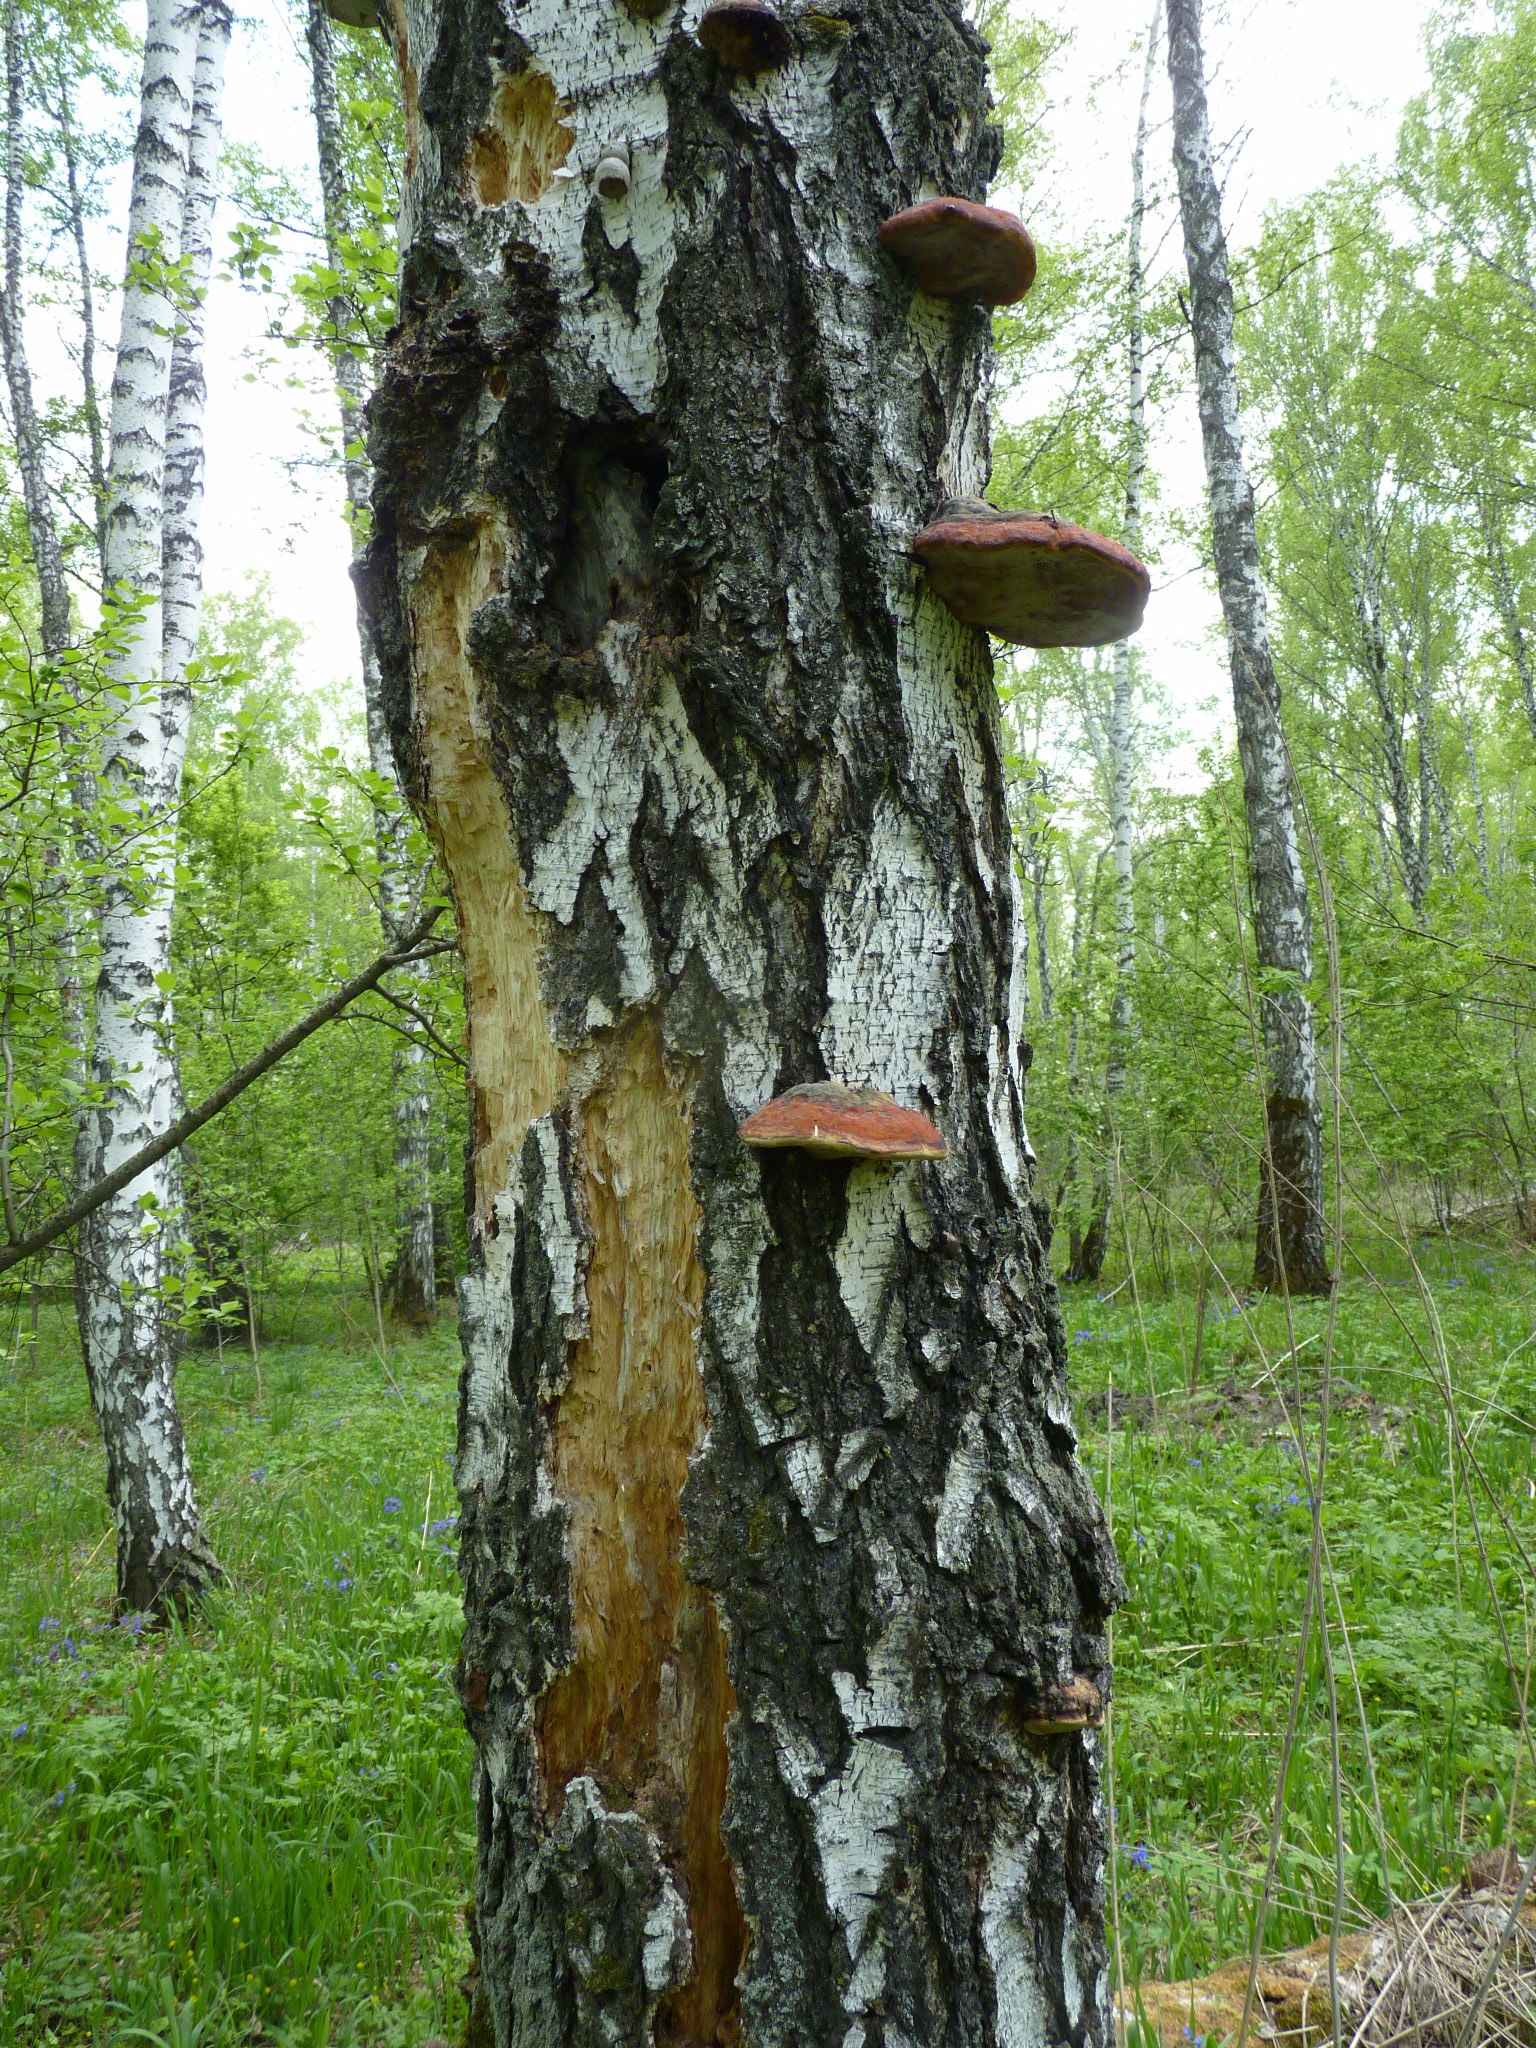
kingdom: Fungi
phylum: Basidiomycota
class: Agaricomycetes
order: Polyporales
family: Fomitopsidaceae
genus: Fomitopsis
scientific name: Fomitopsis pinicola
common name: Red-belted bracket
